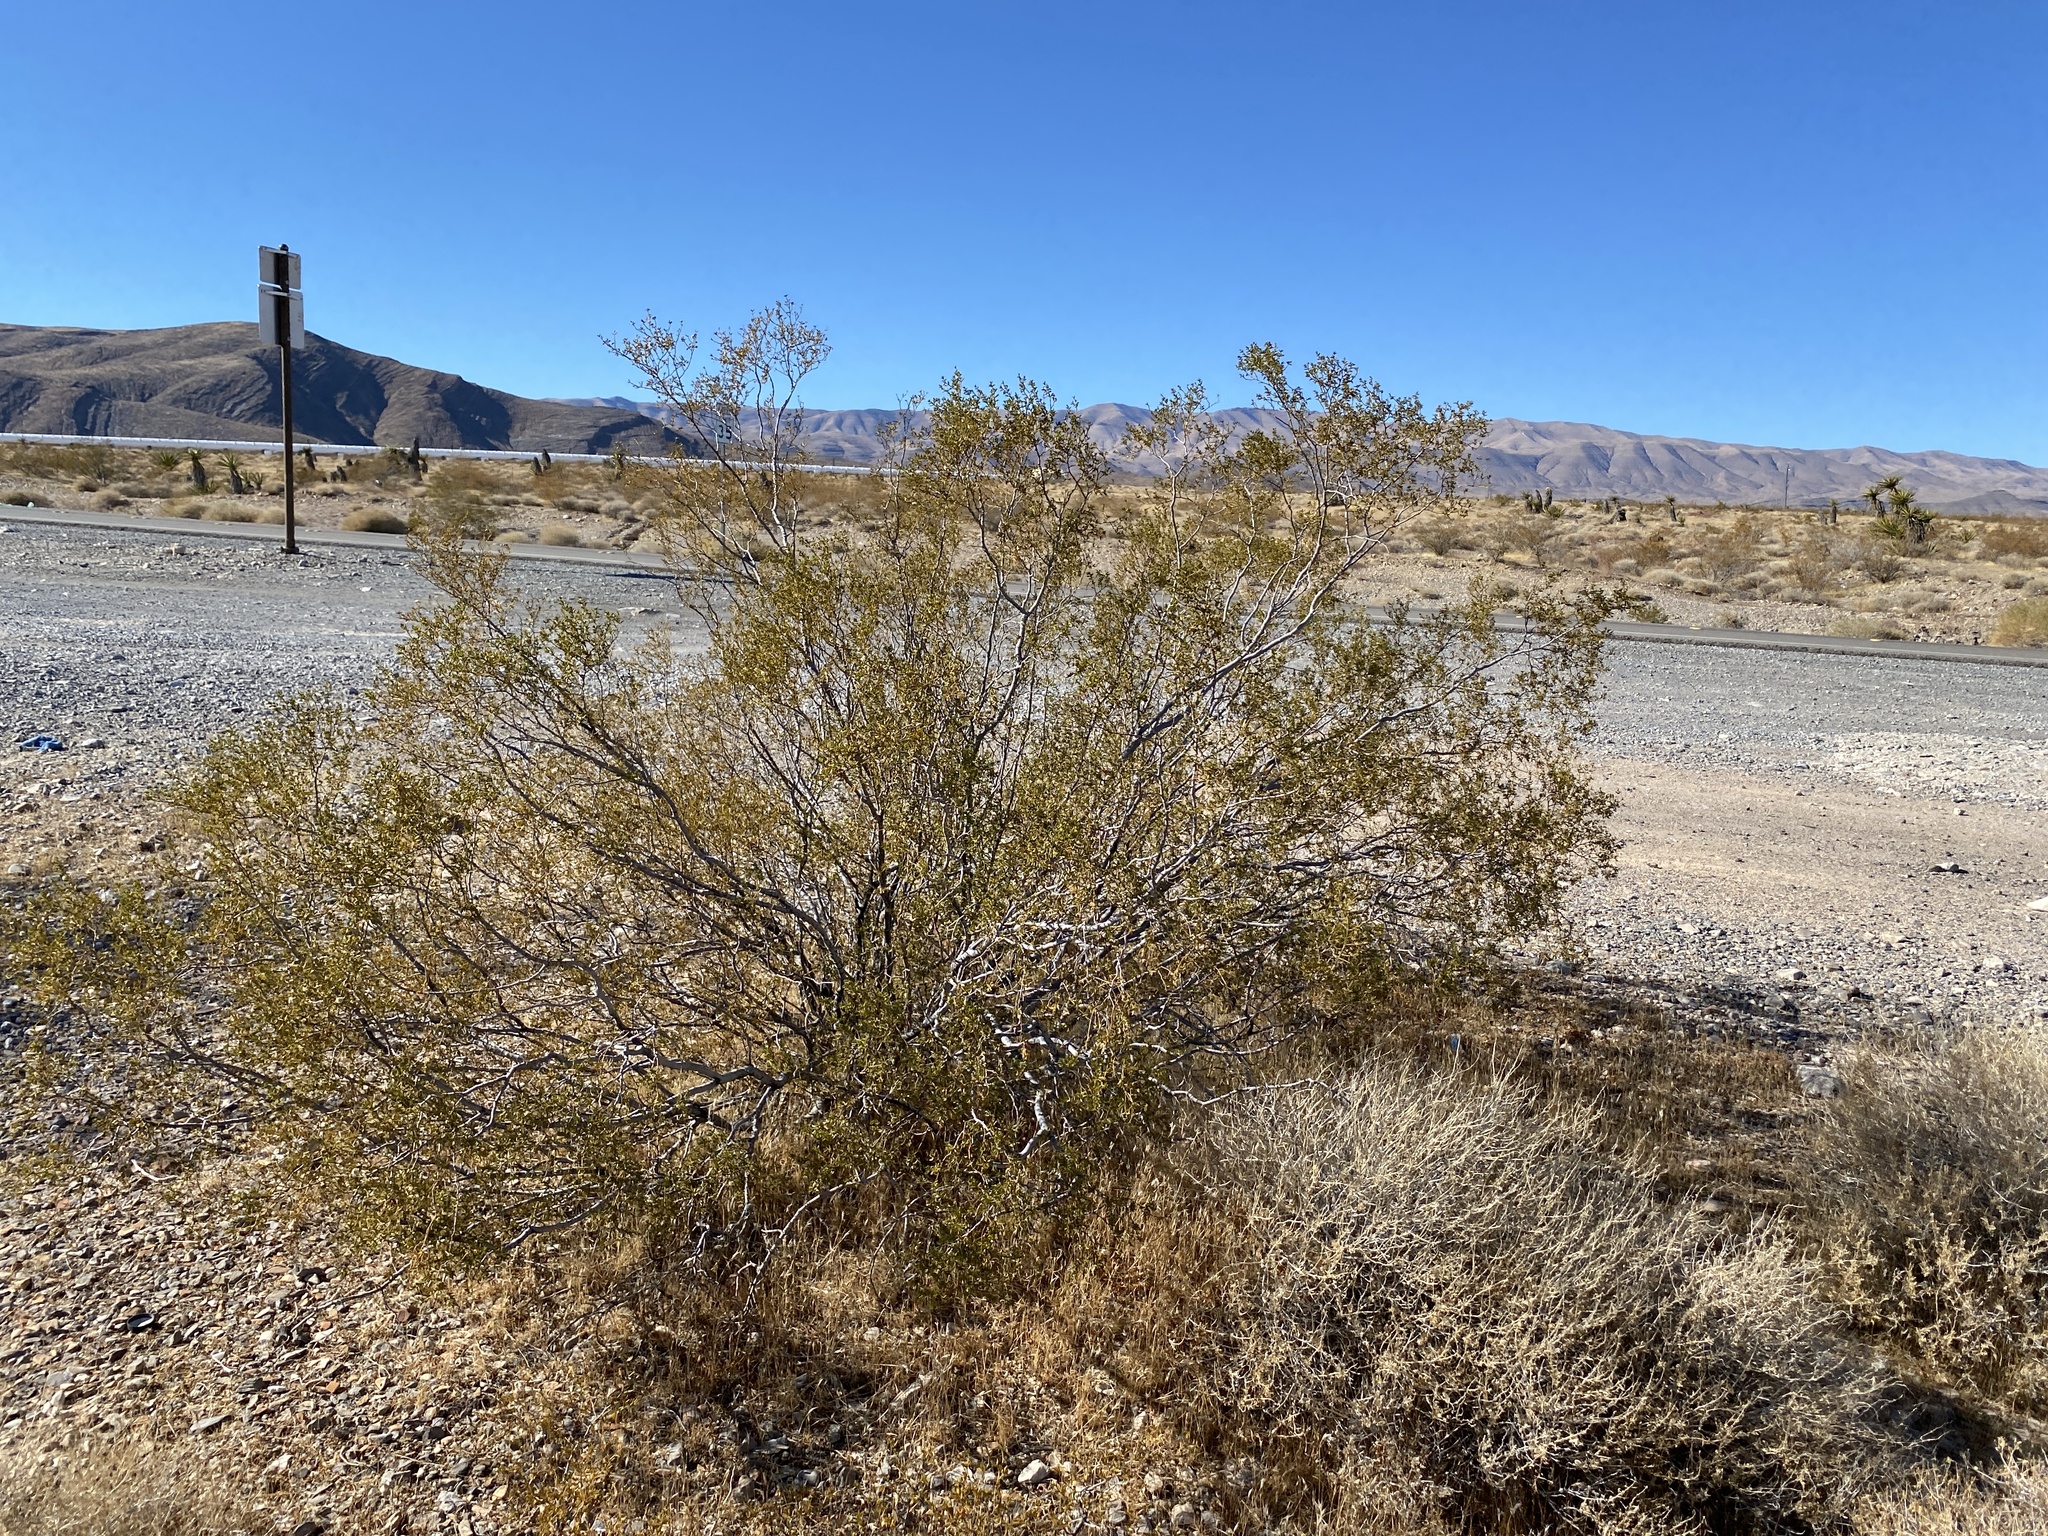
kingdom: Plantae
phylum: Tracheophyta
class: Magnoliopsida
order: Zygophyllales
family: Zygophyllaceae
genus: Larrea
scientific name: Larrea tridentata
